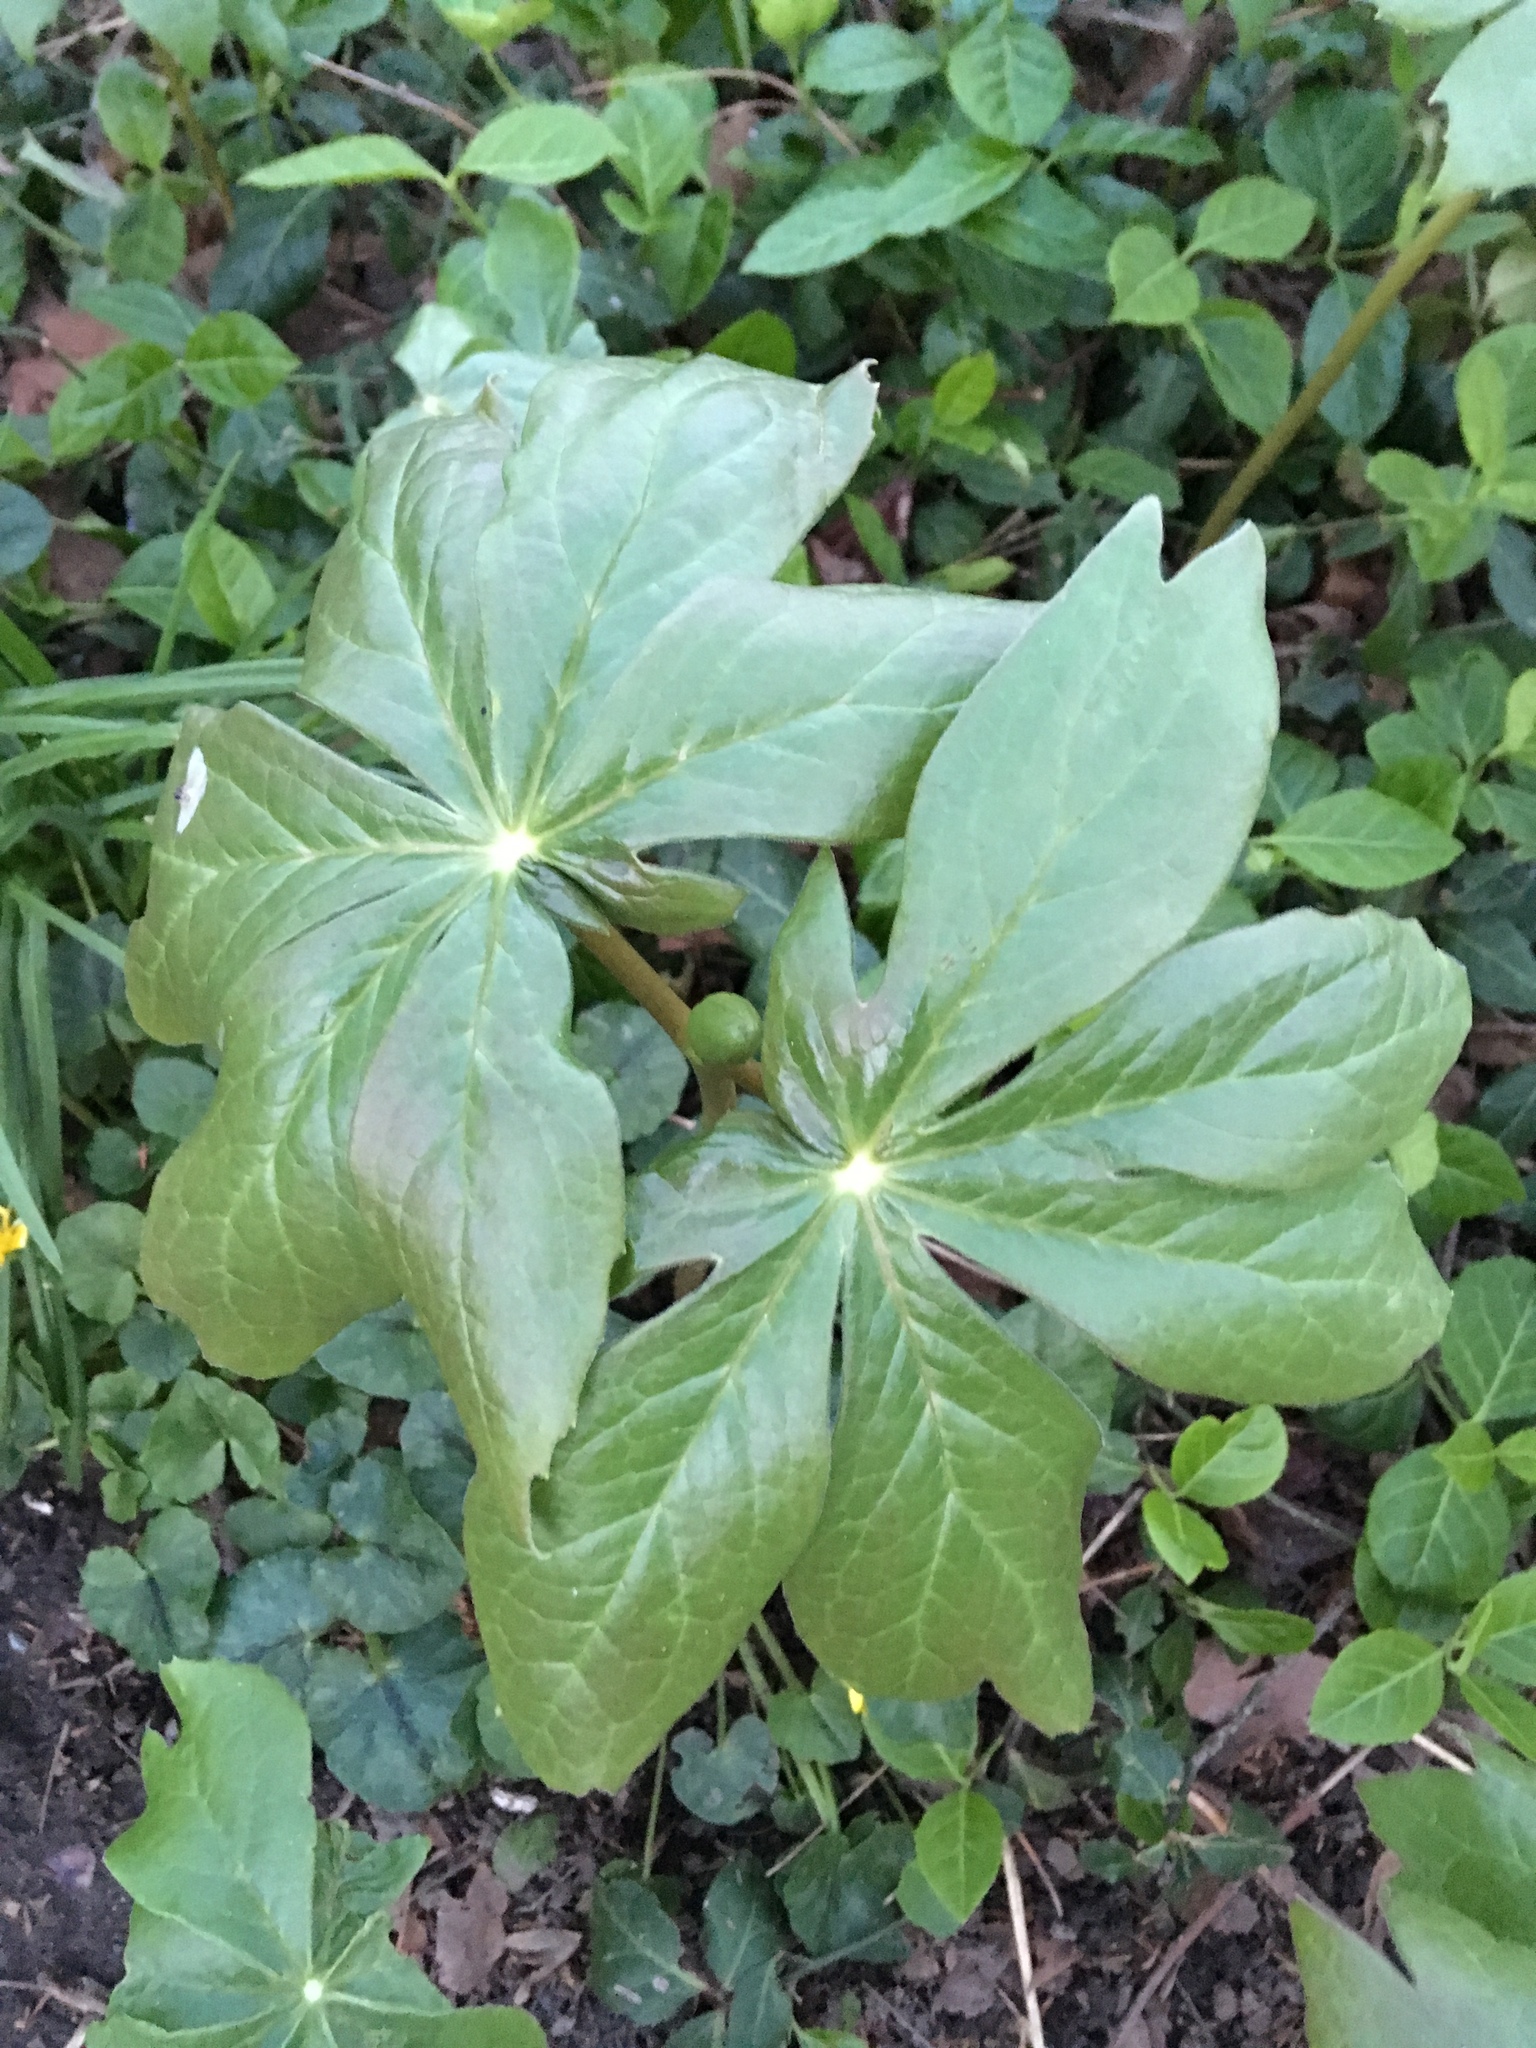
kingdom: Plantae
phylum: Tracheophyta
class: Magnoliopsida
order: Ranunculales
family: Berberidaceae
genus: Podophyllum
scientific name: Podophyllum peltatum
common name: Wild mandrake
